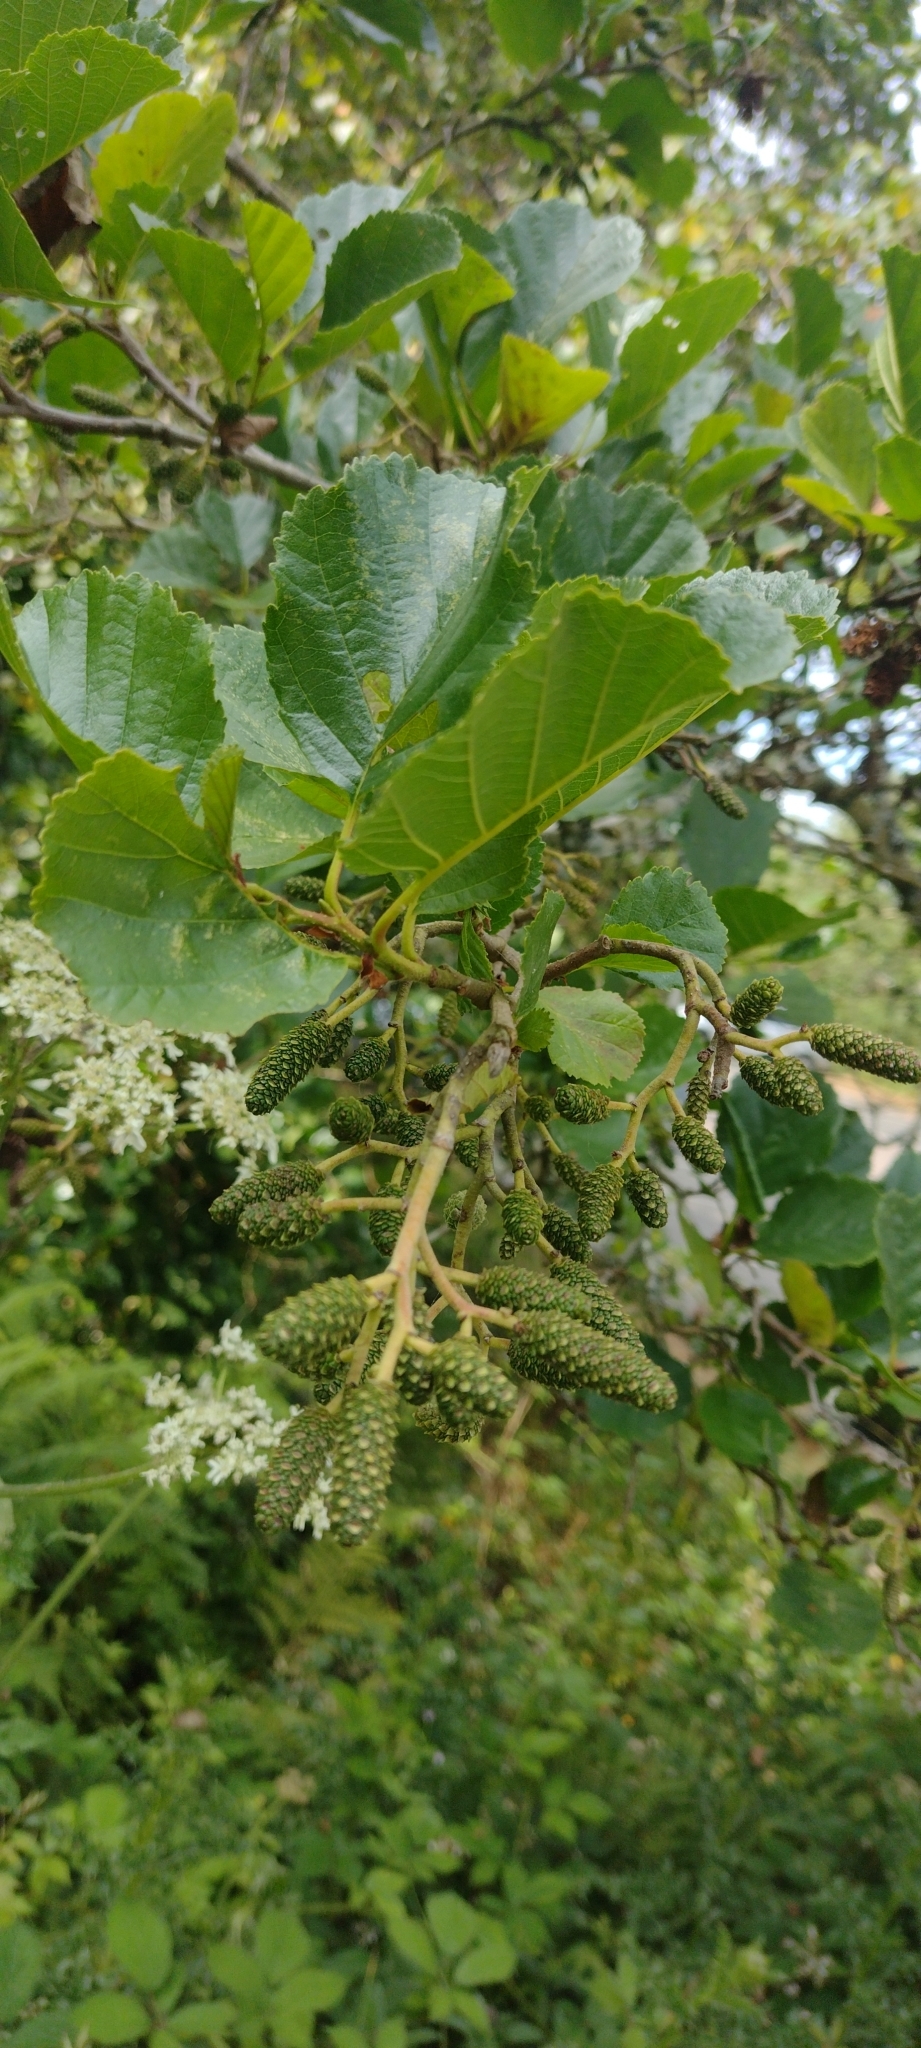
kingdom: Plantae
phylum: Tracheophyta
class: Magnoliopsida
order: Fagales
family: Betulaceae
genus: Alnus
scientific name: Alnus glutinosa
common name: Black alder
